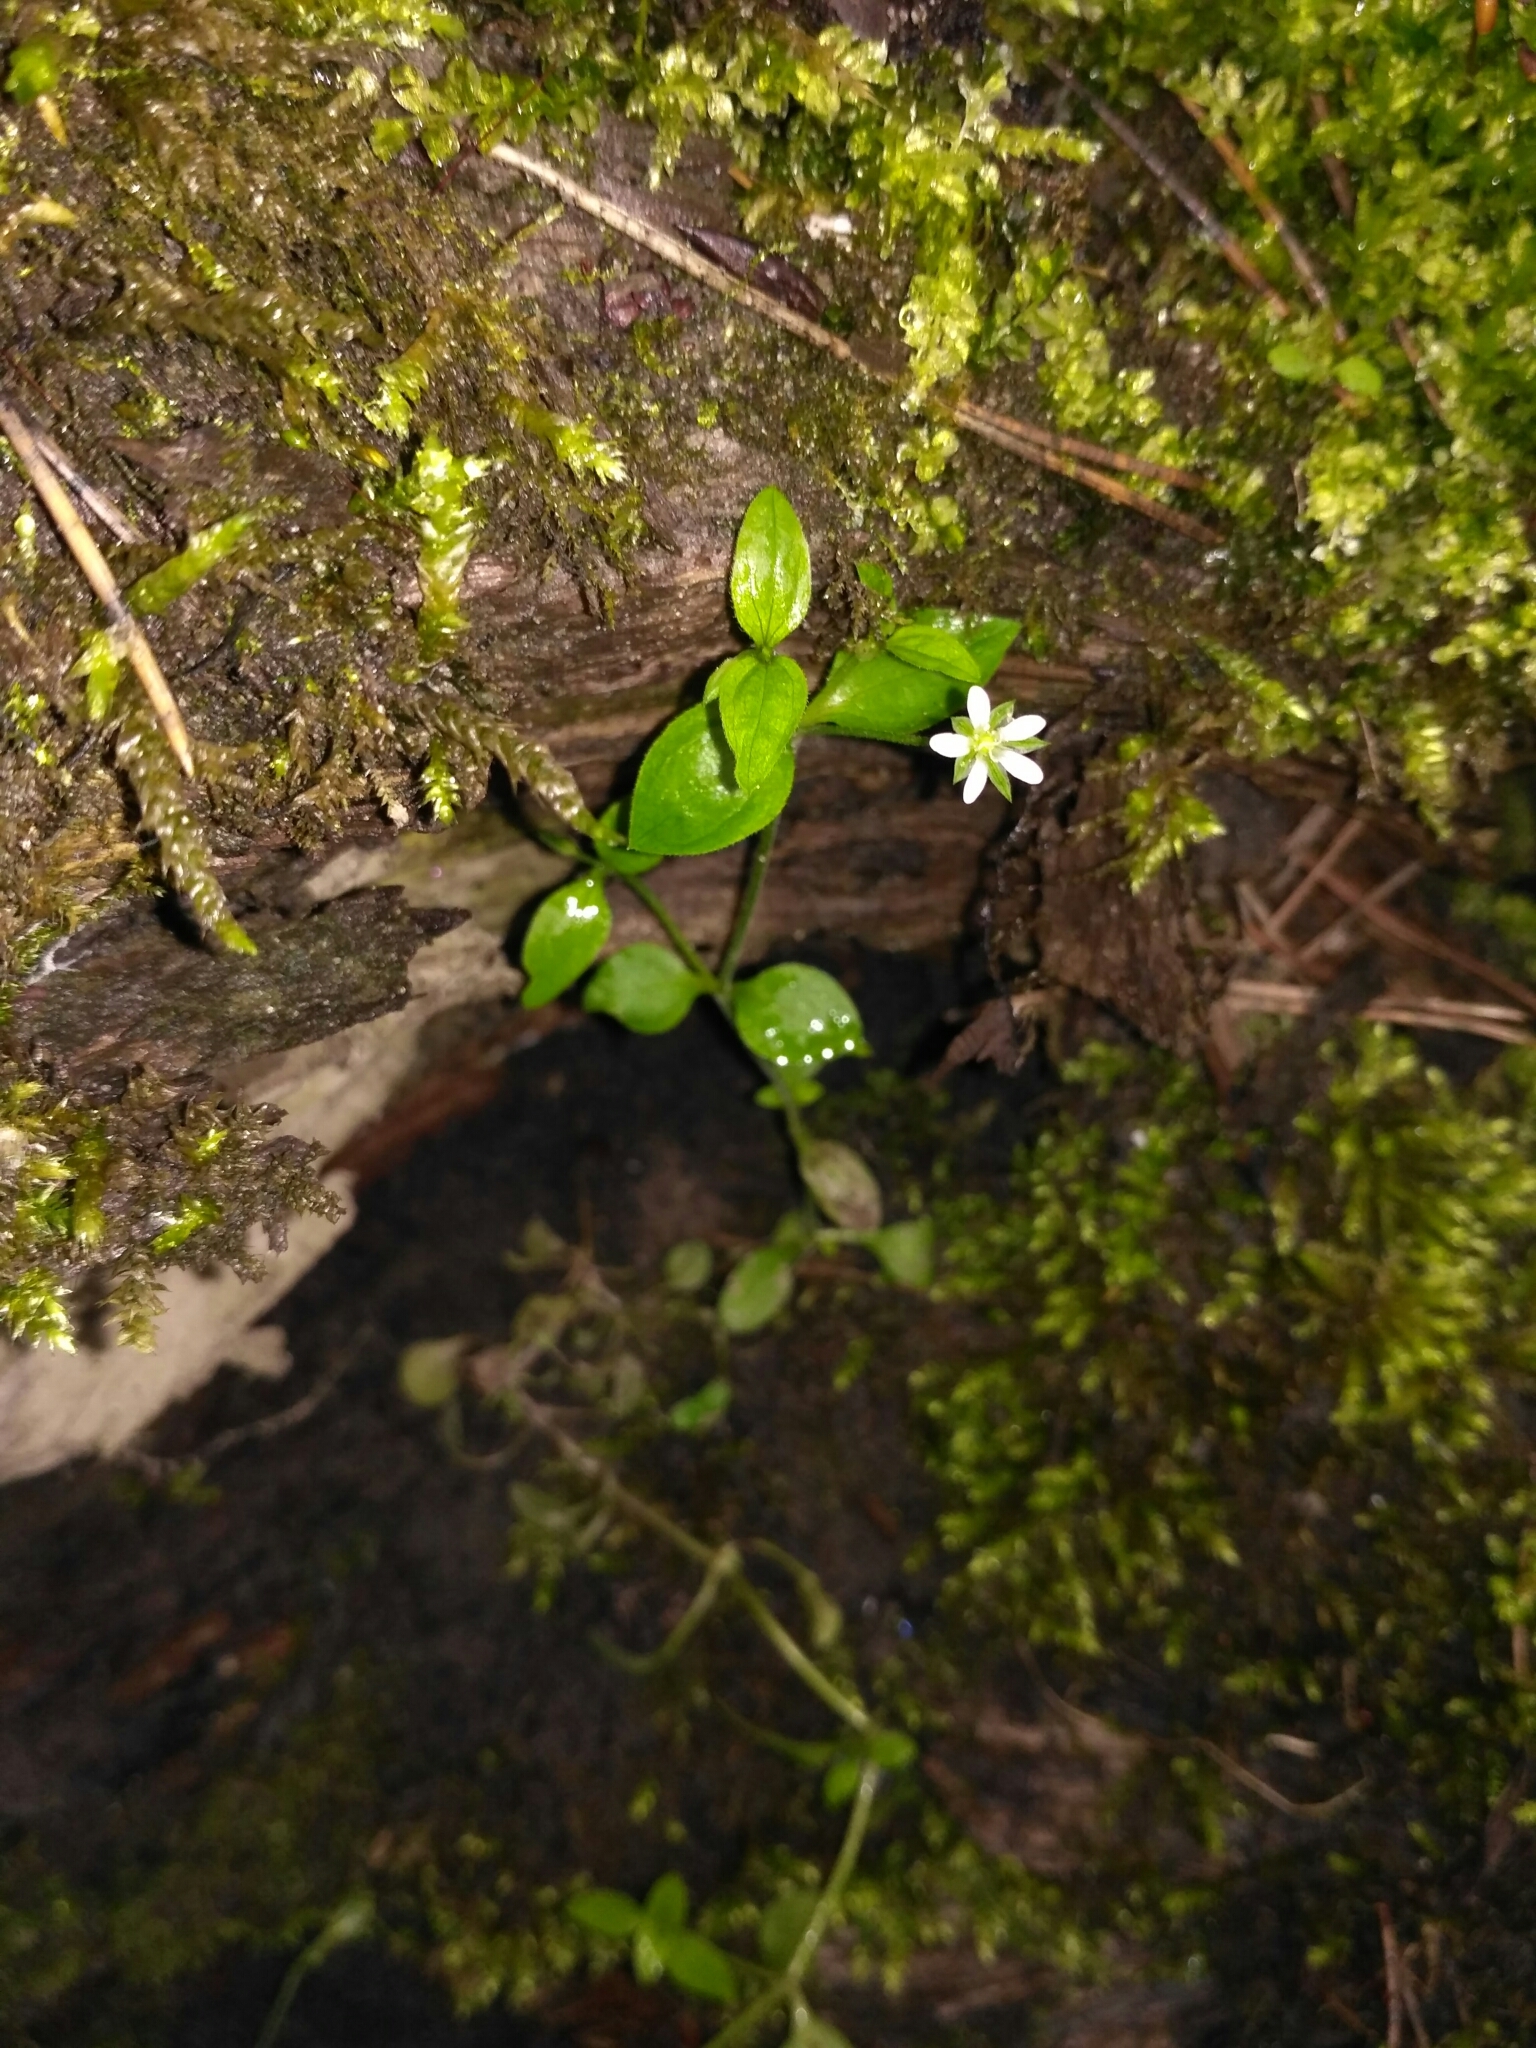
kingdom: Plantae
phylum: Tracheophyta
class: Magnoliopsida
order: Caryophyllales
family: Caryophyllaceae
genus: Moehringia
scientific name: Moehringia trinervia
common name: Three-nerved sandwort
